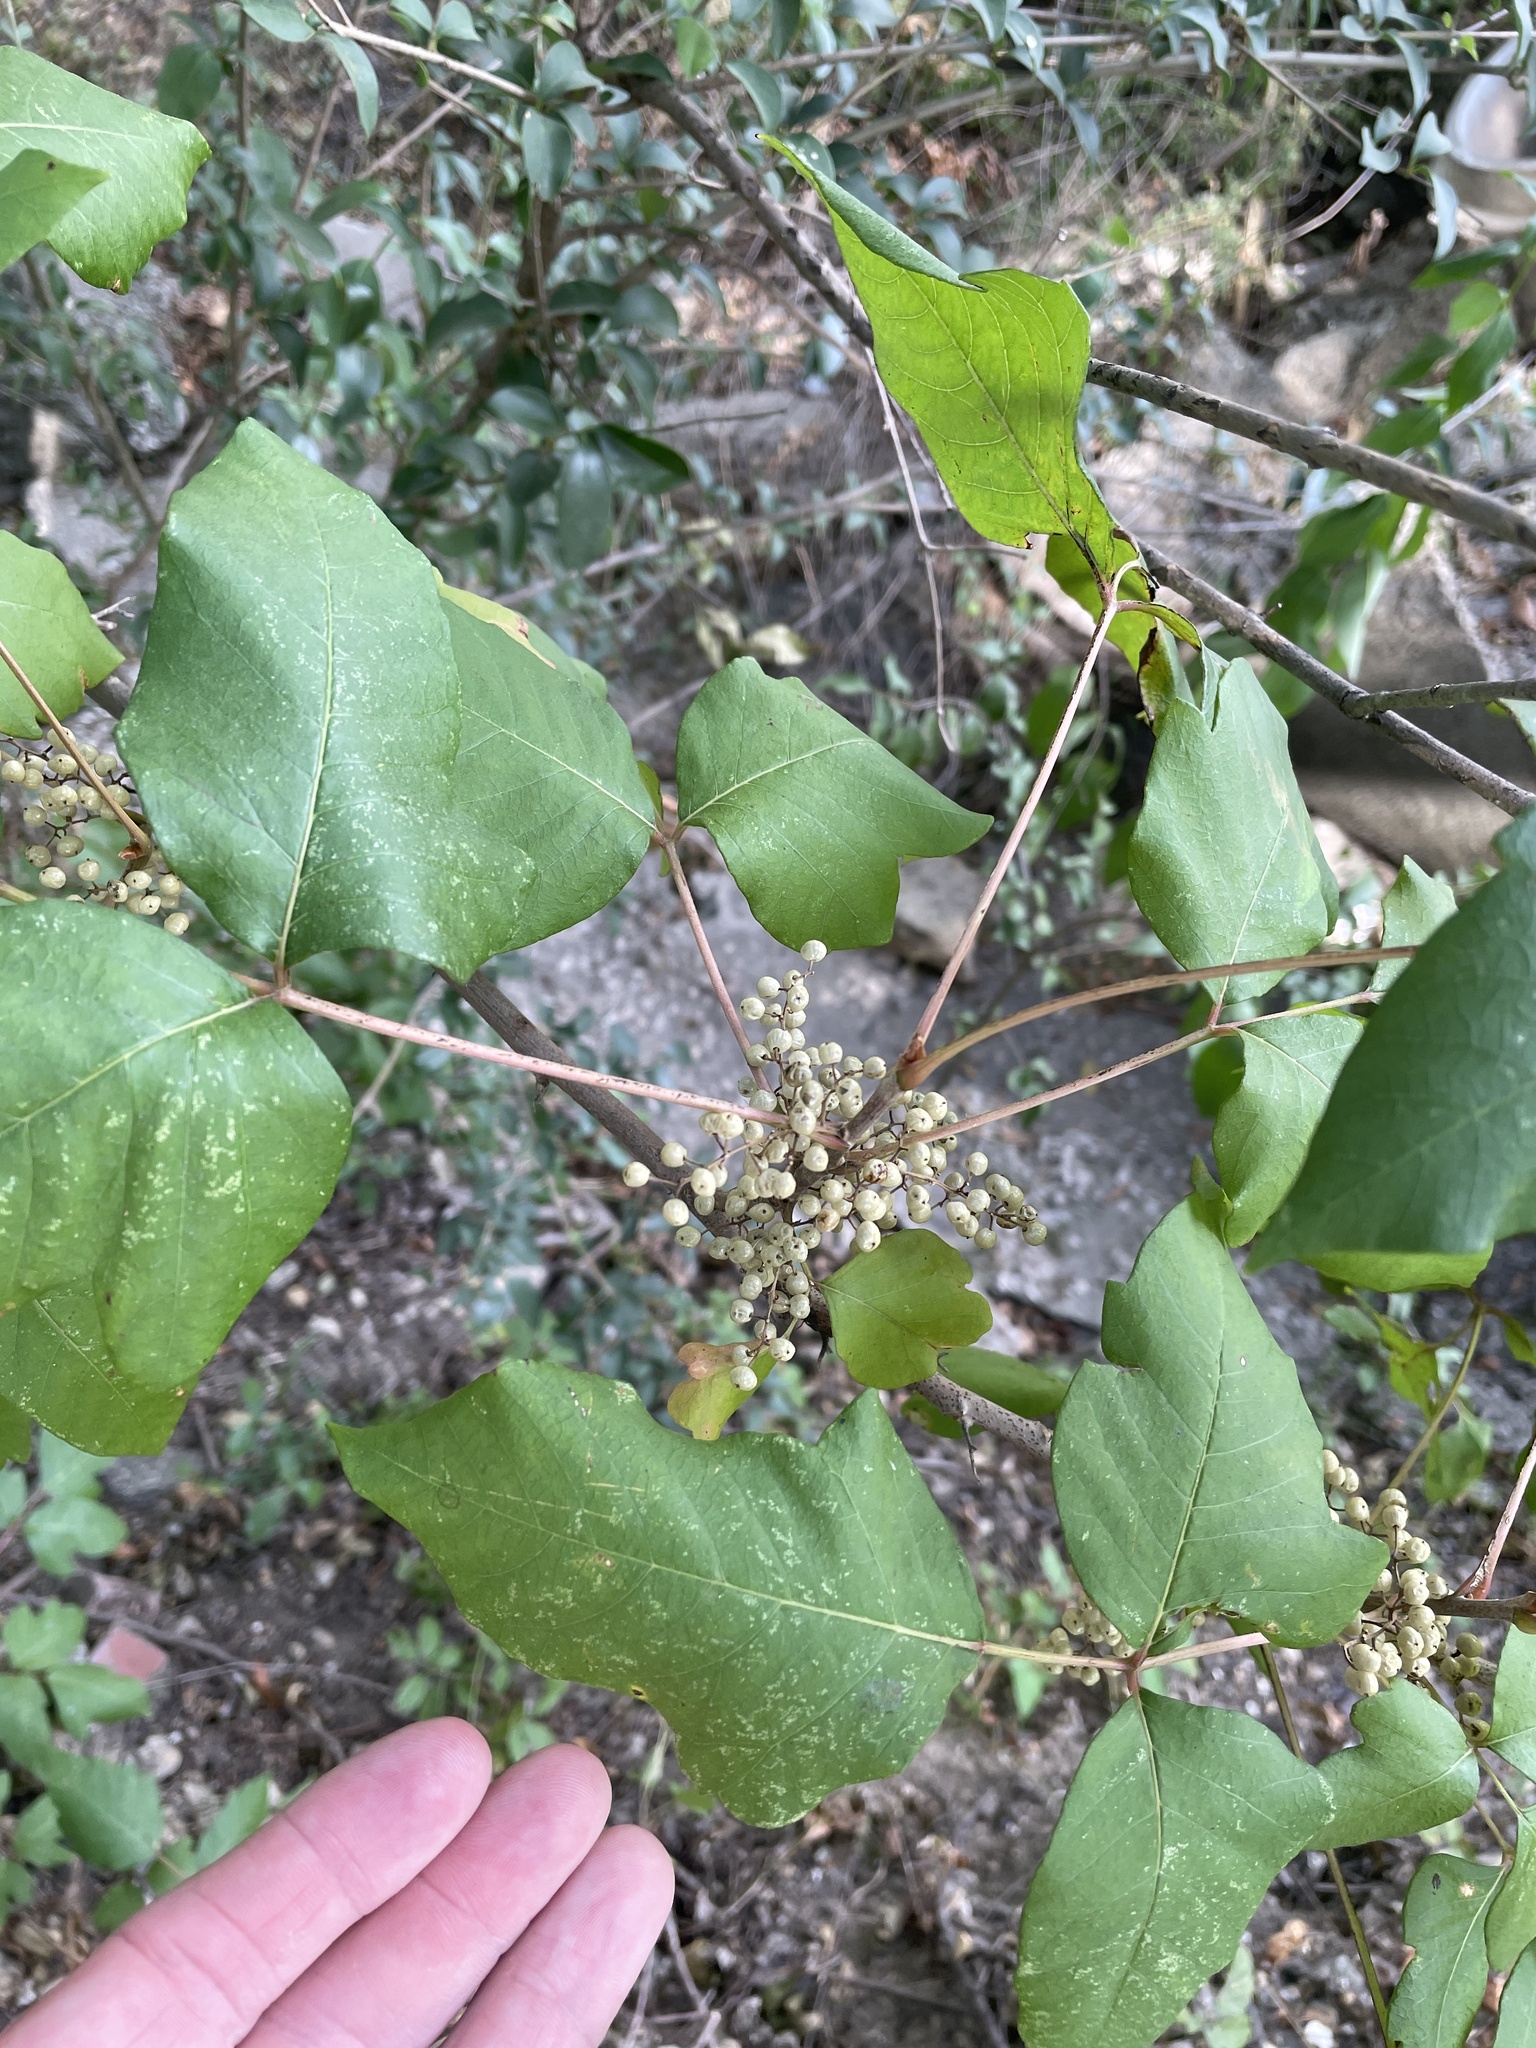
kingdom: Plantae
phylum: Tracheophyta
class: Magnoliopsida
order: Sapindales
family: Anacardiaceae
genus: Toxicodendron
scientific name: Toxicodendron radicans
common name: Poison ivy
